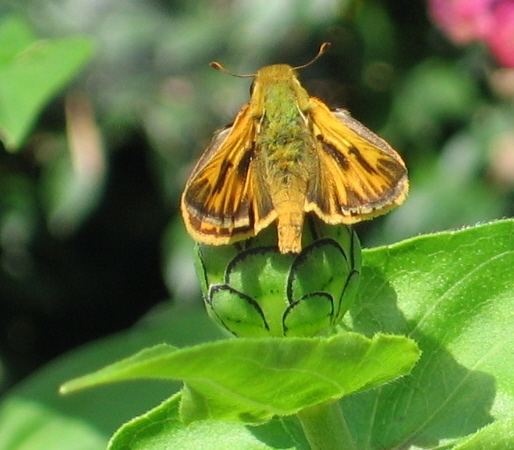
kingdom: Animalia
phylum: Arthropoda
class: Insecta
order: Lepidoptera
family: Hesperiidae
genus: Hylephila
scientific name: Hylephila phyleus
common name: Fiery skipper
